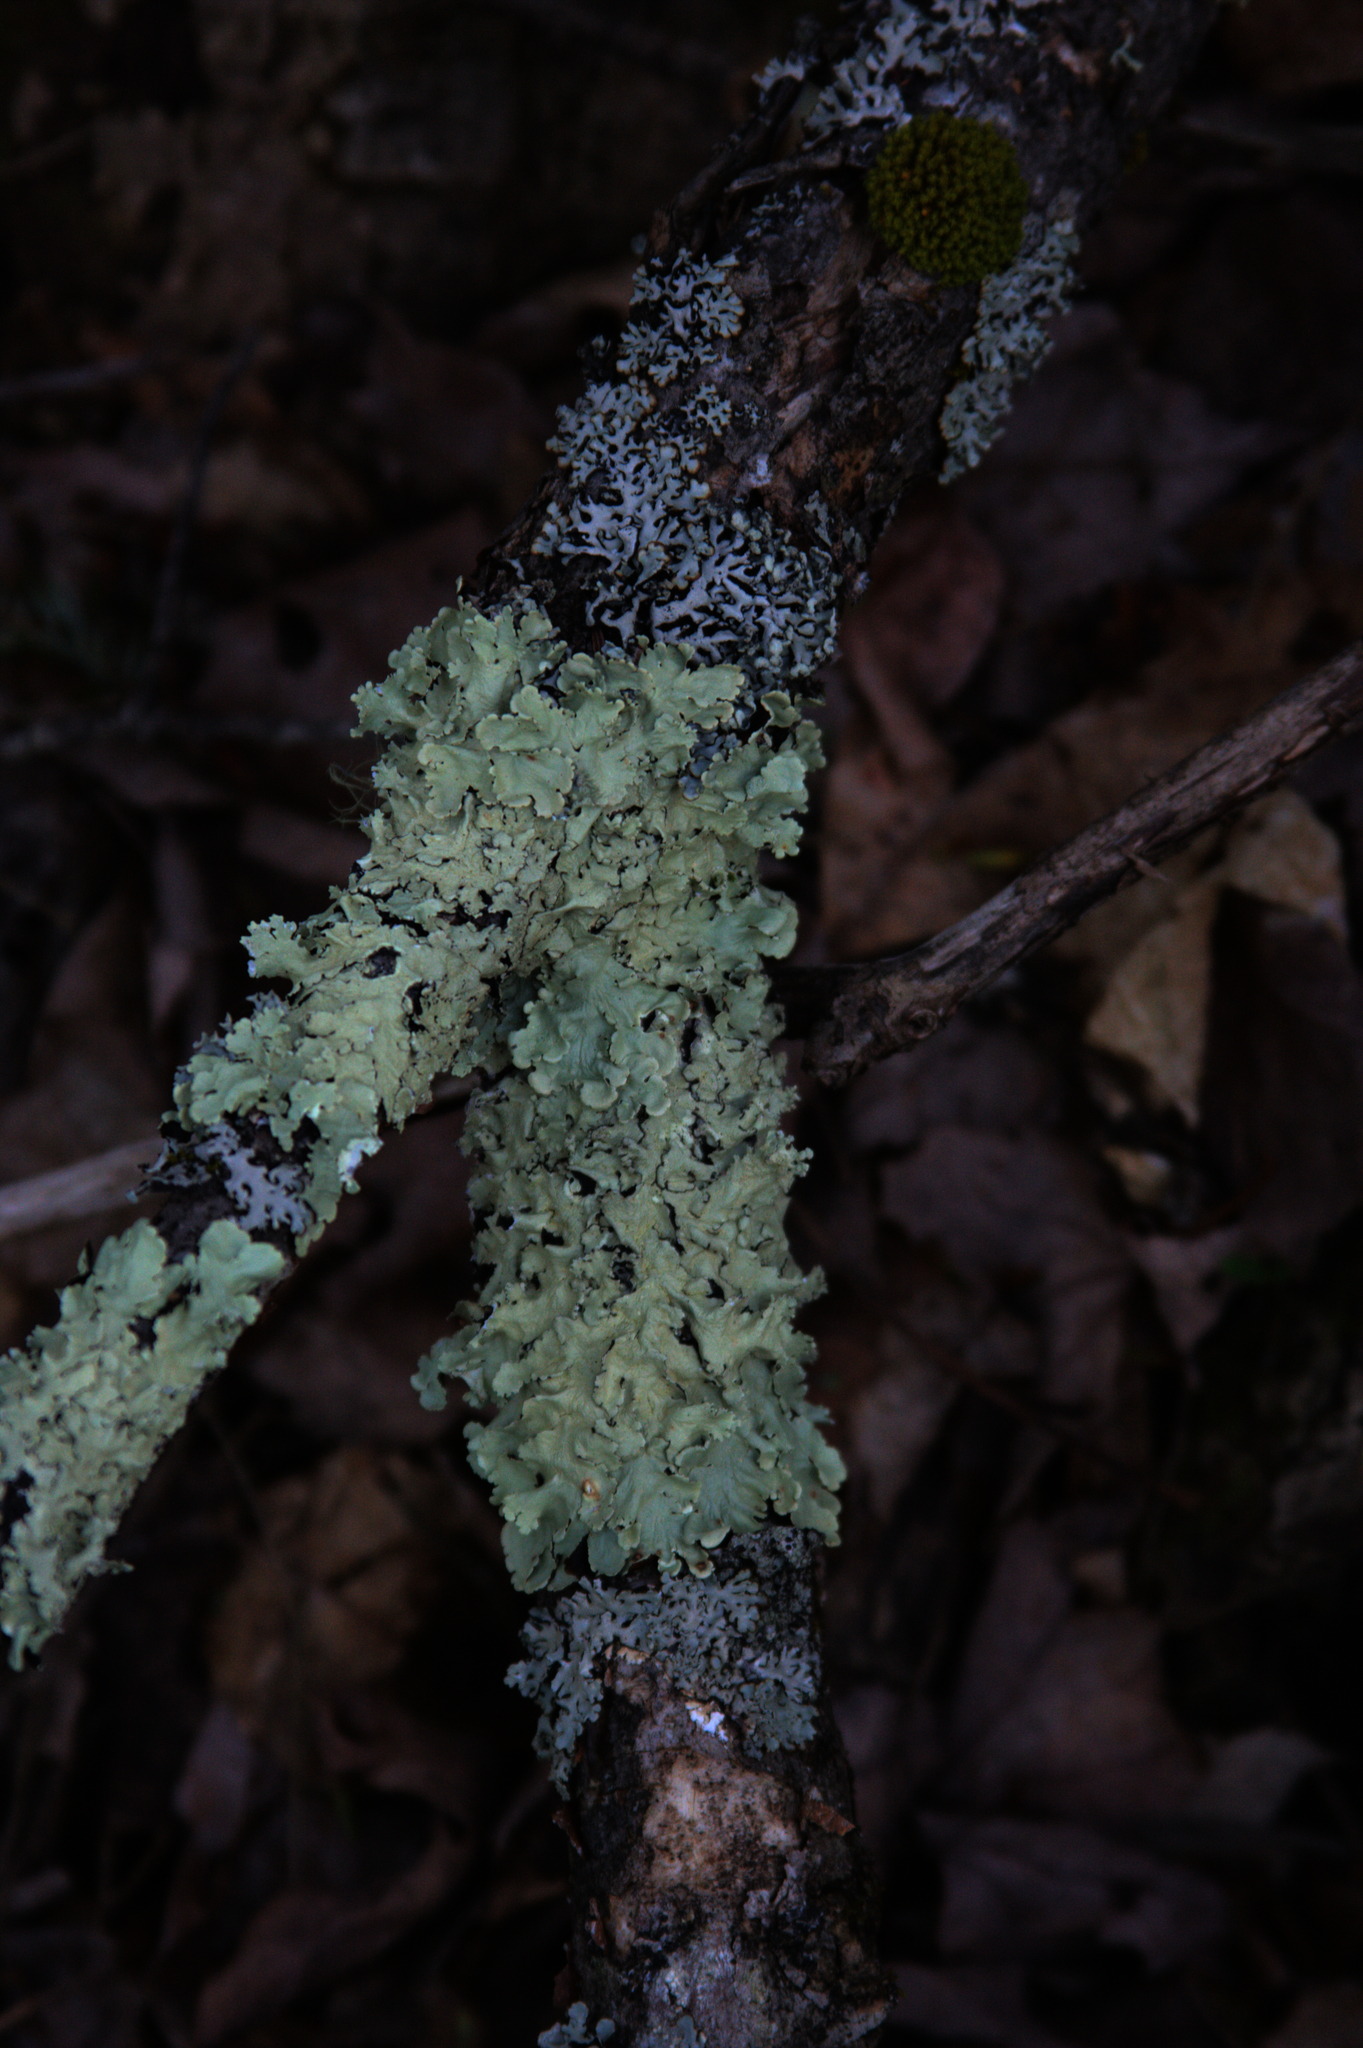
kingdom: Fungi
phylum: Ascomycota
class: Lecanoromycetes
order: Lecanorales
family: Parmeliaceae
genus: Flavoparmelia
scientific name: Flavoparmelia caperata
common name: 40-mile per hour lichen
